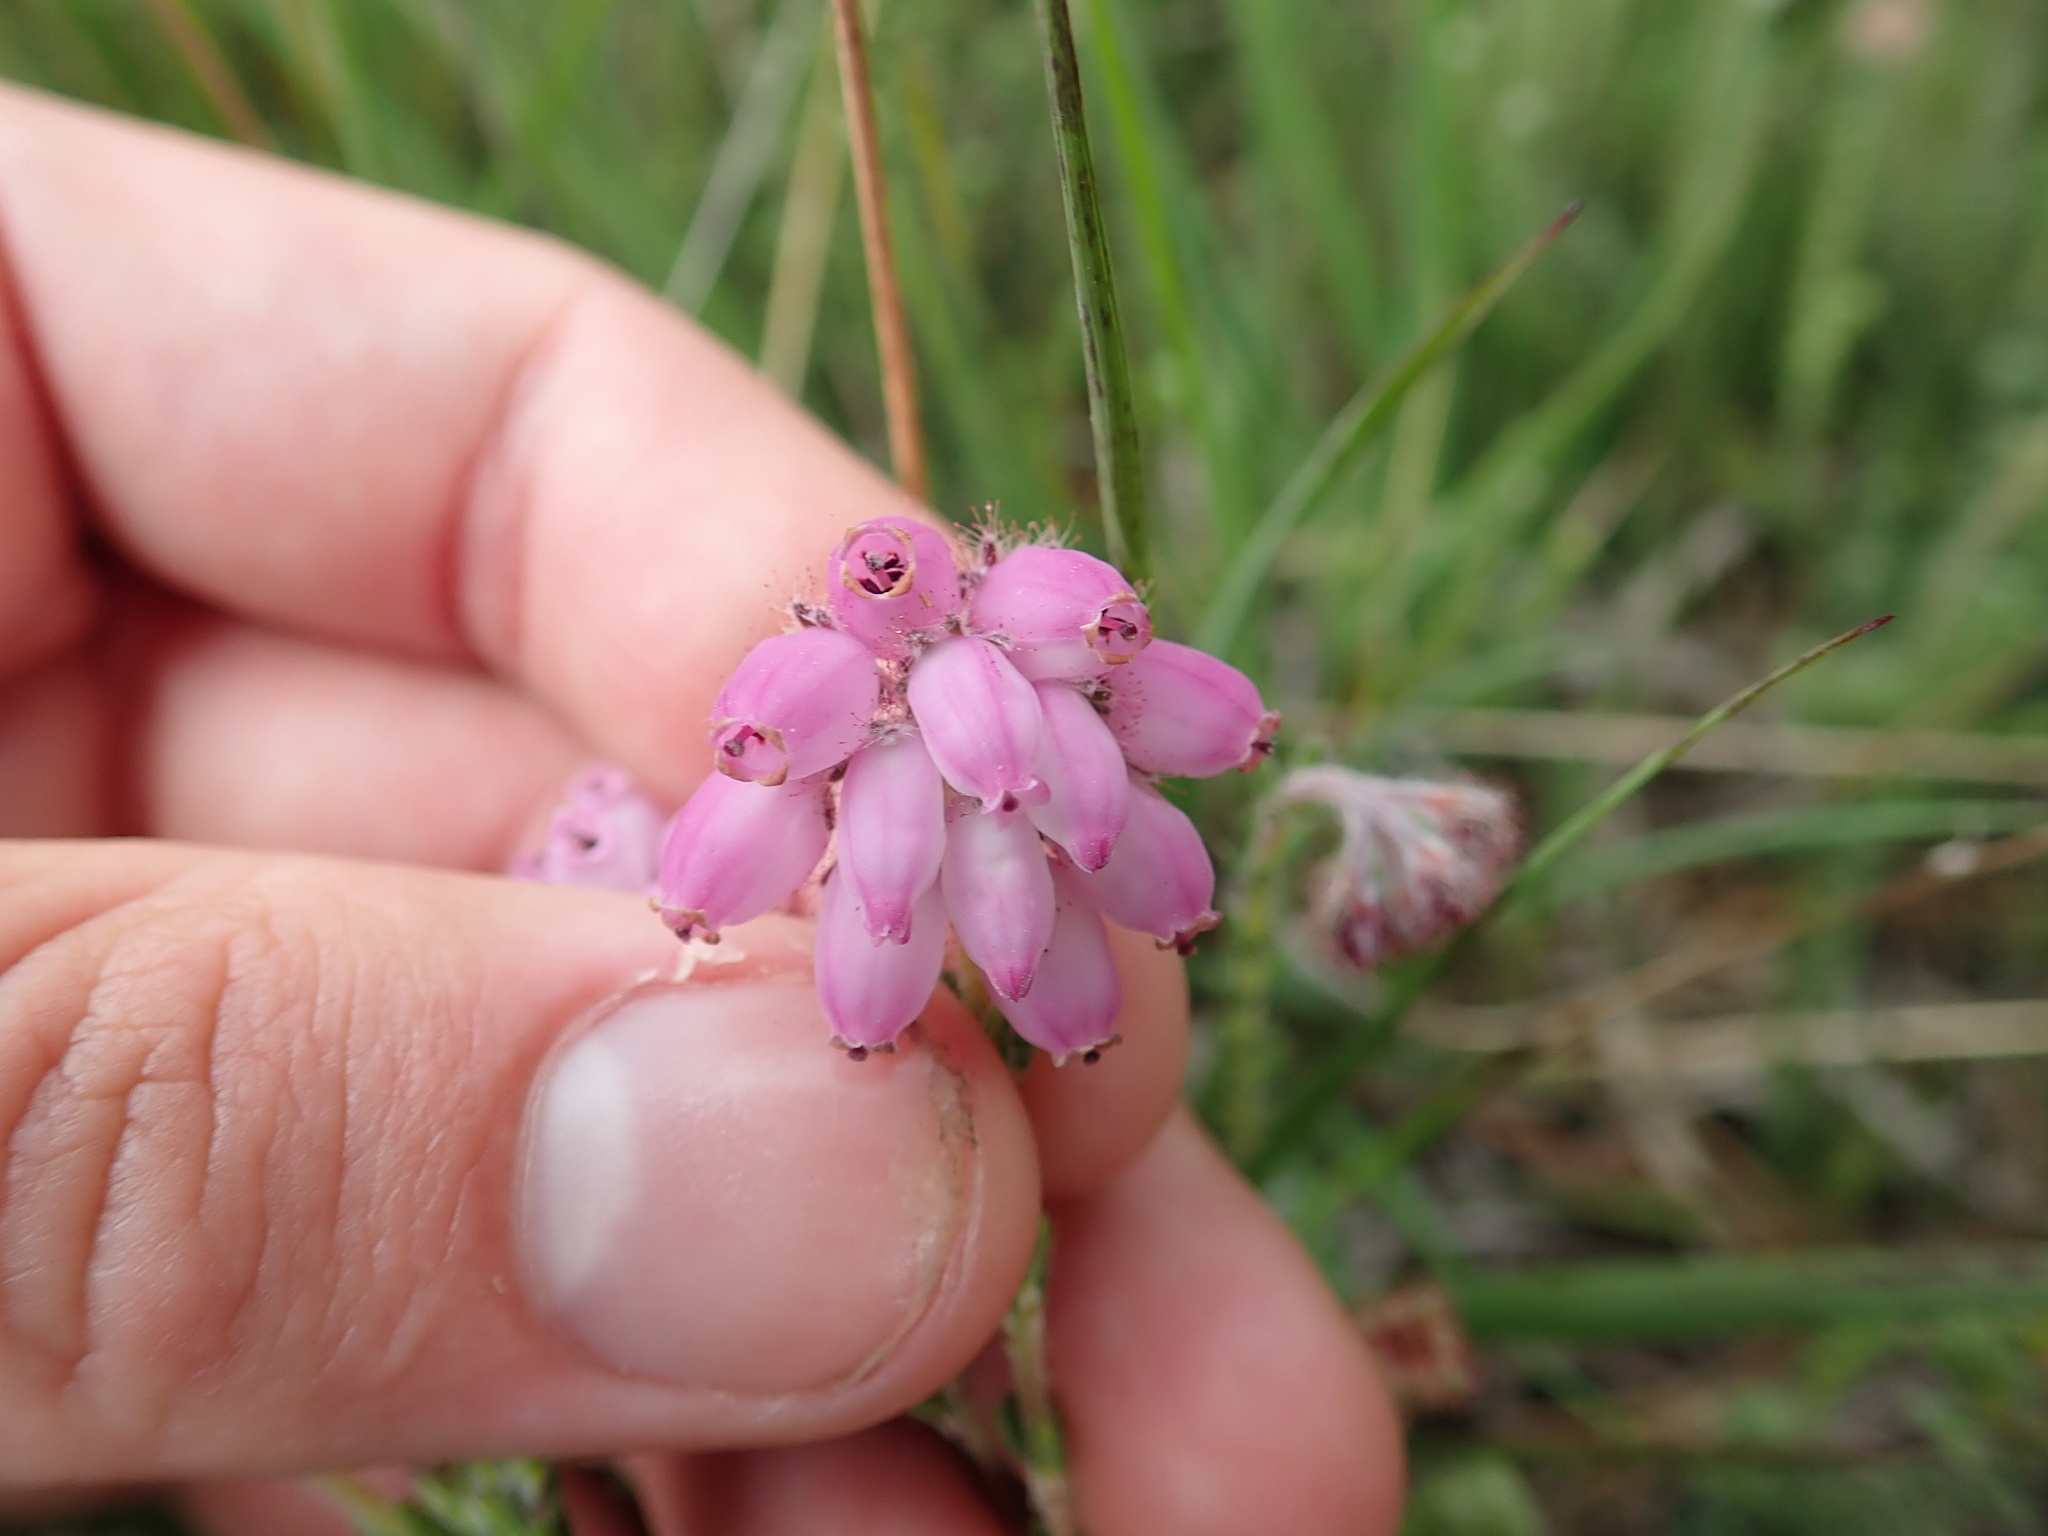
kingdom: Plantae
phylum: Tracheophyta
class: Magnoliopsida
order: Ericales
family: Ericaceae
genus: Erica
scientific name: Erica tetralix
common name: Cross-leaved heath
